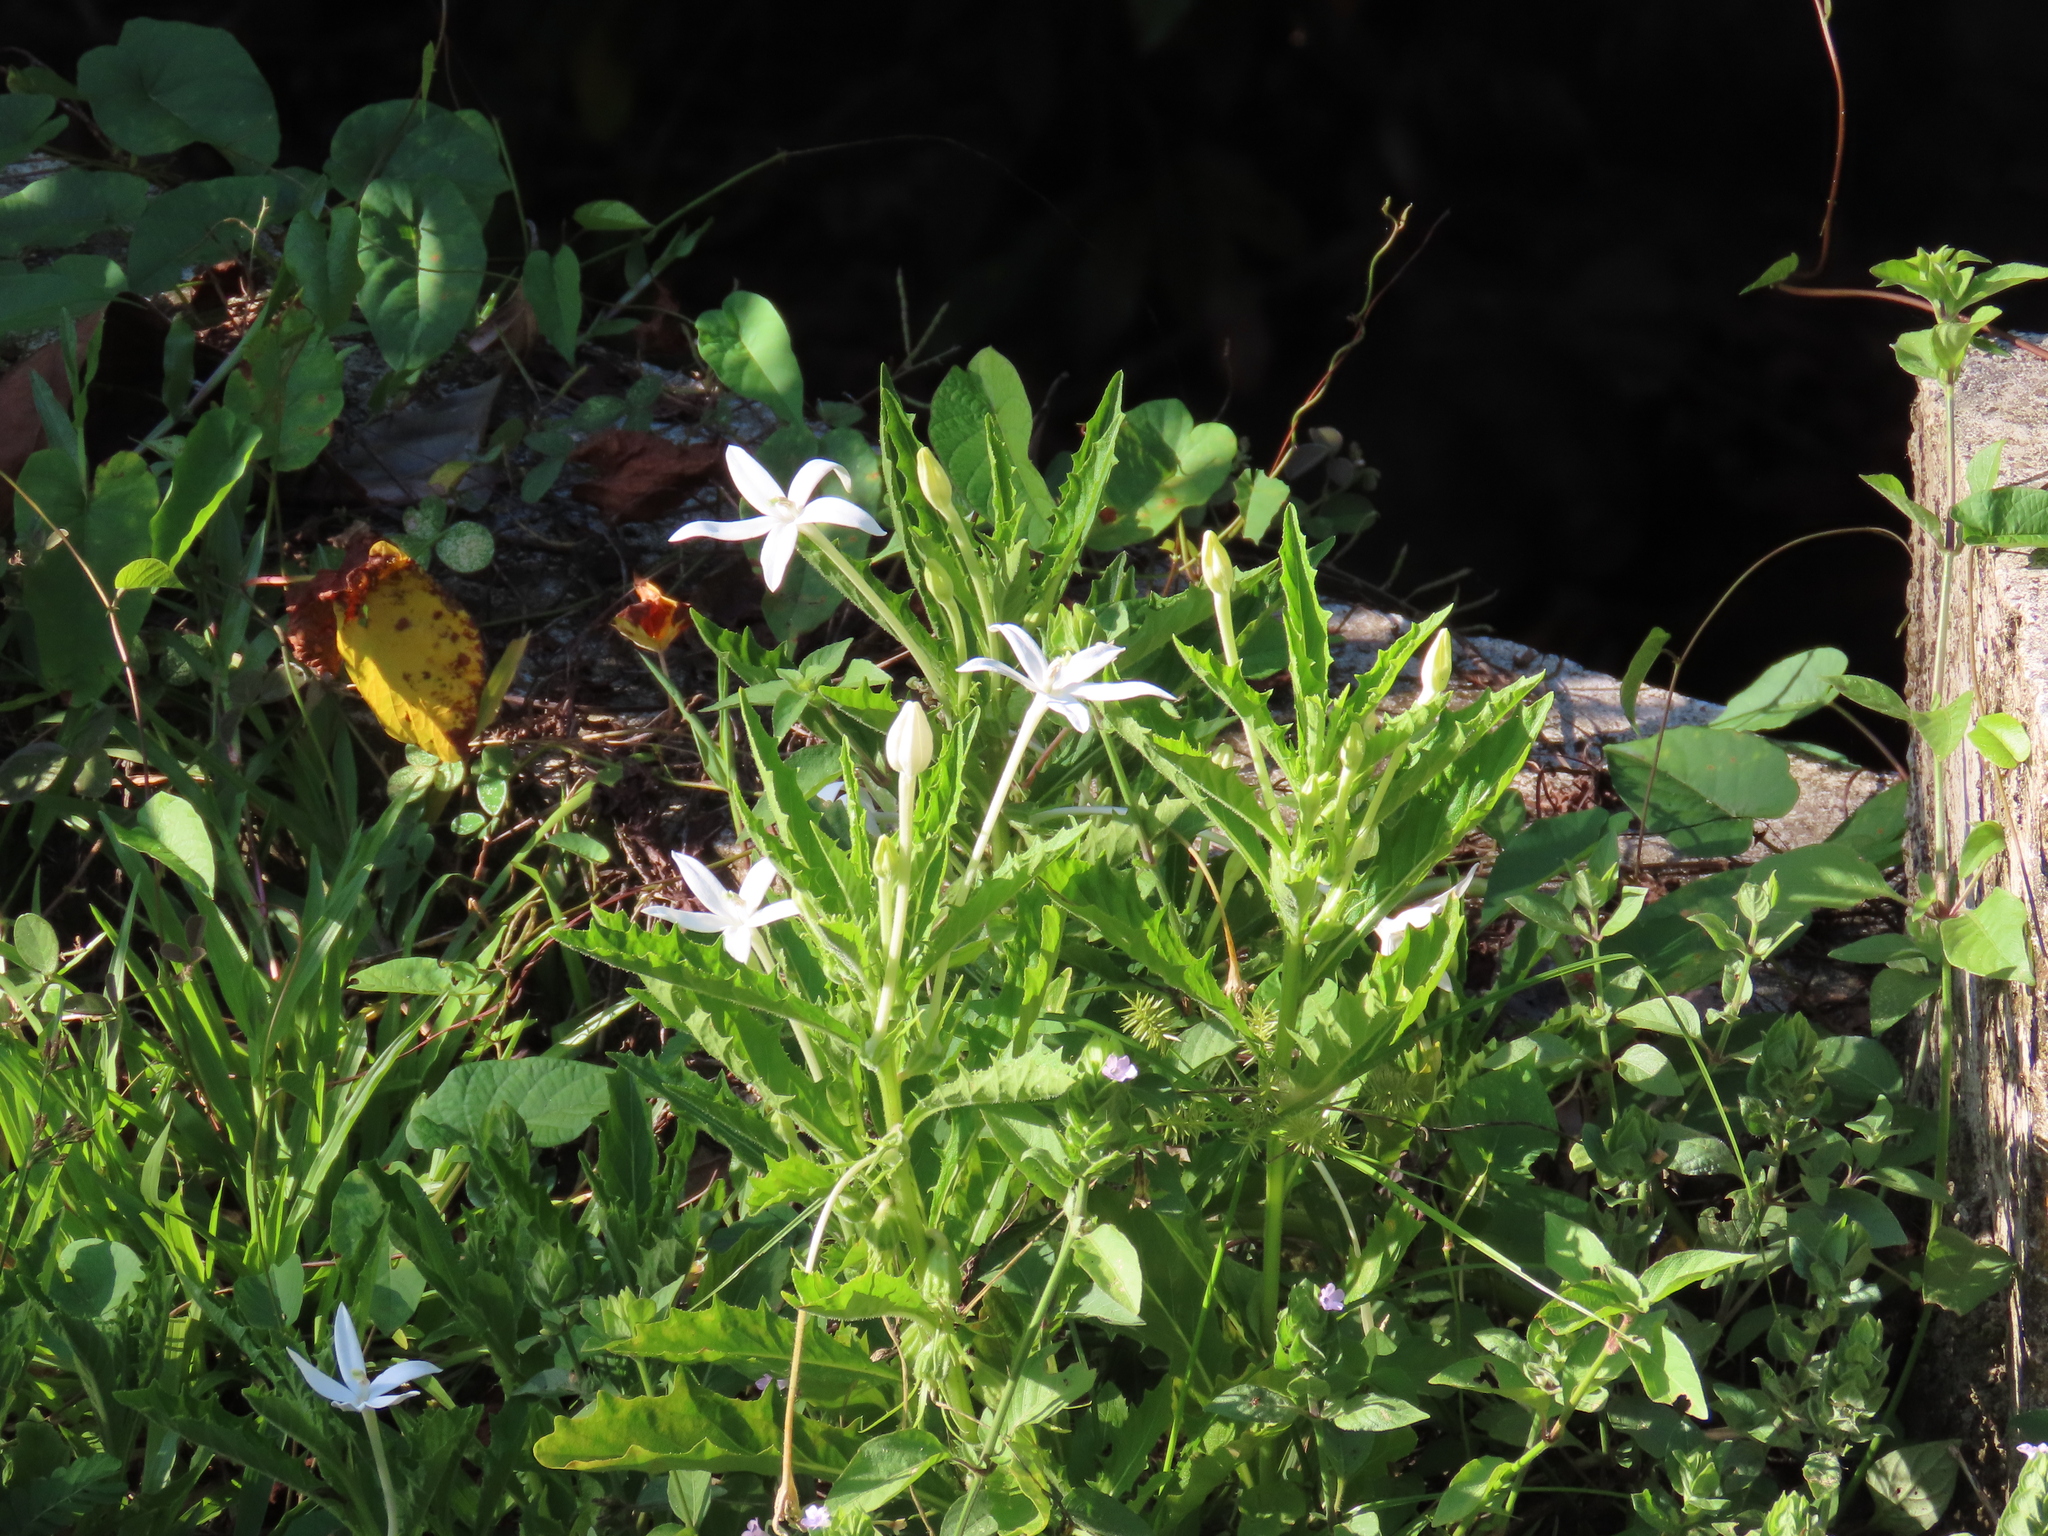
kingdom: Plantae
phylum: Tracheophyta
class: Magnoliopsida
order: Asterales
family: Campanulaceae
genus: Hippobroma
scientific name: Hippobroma longiflora
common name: Madamfate
